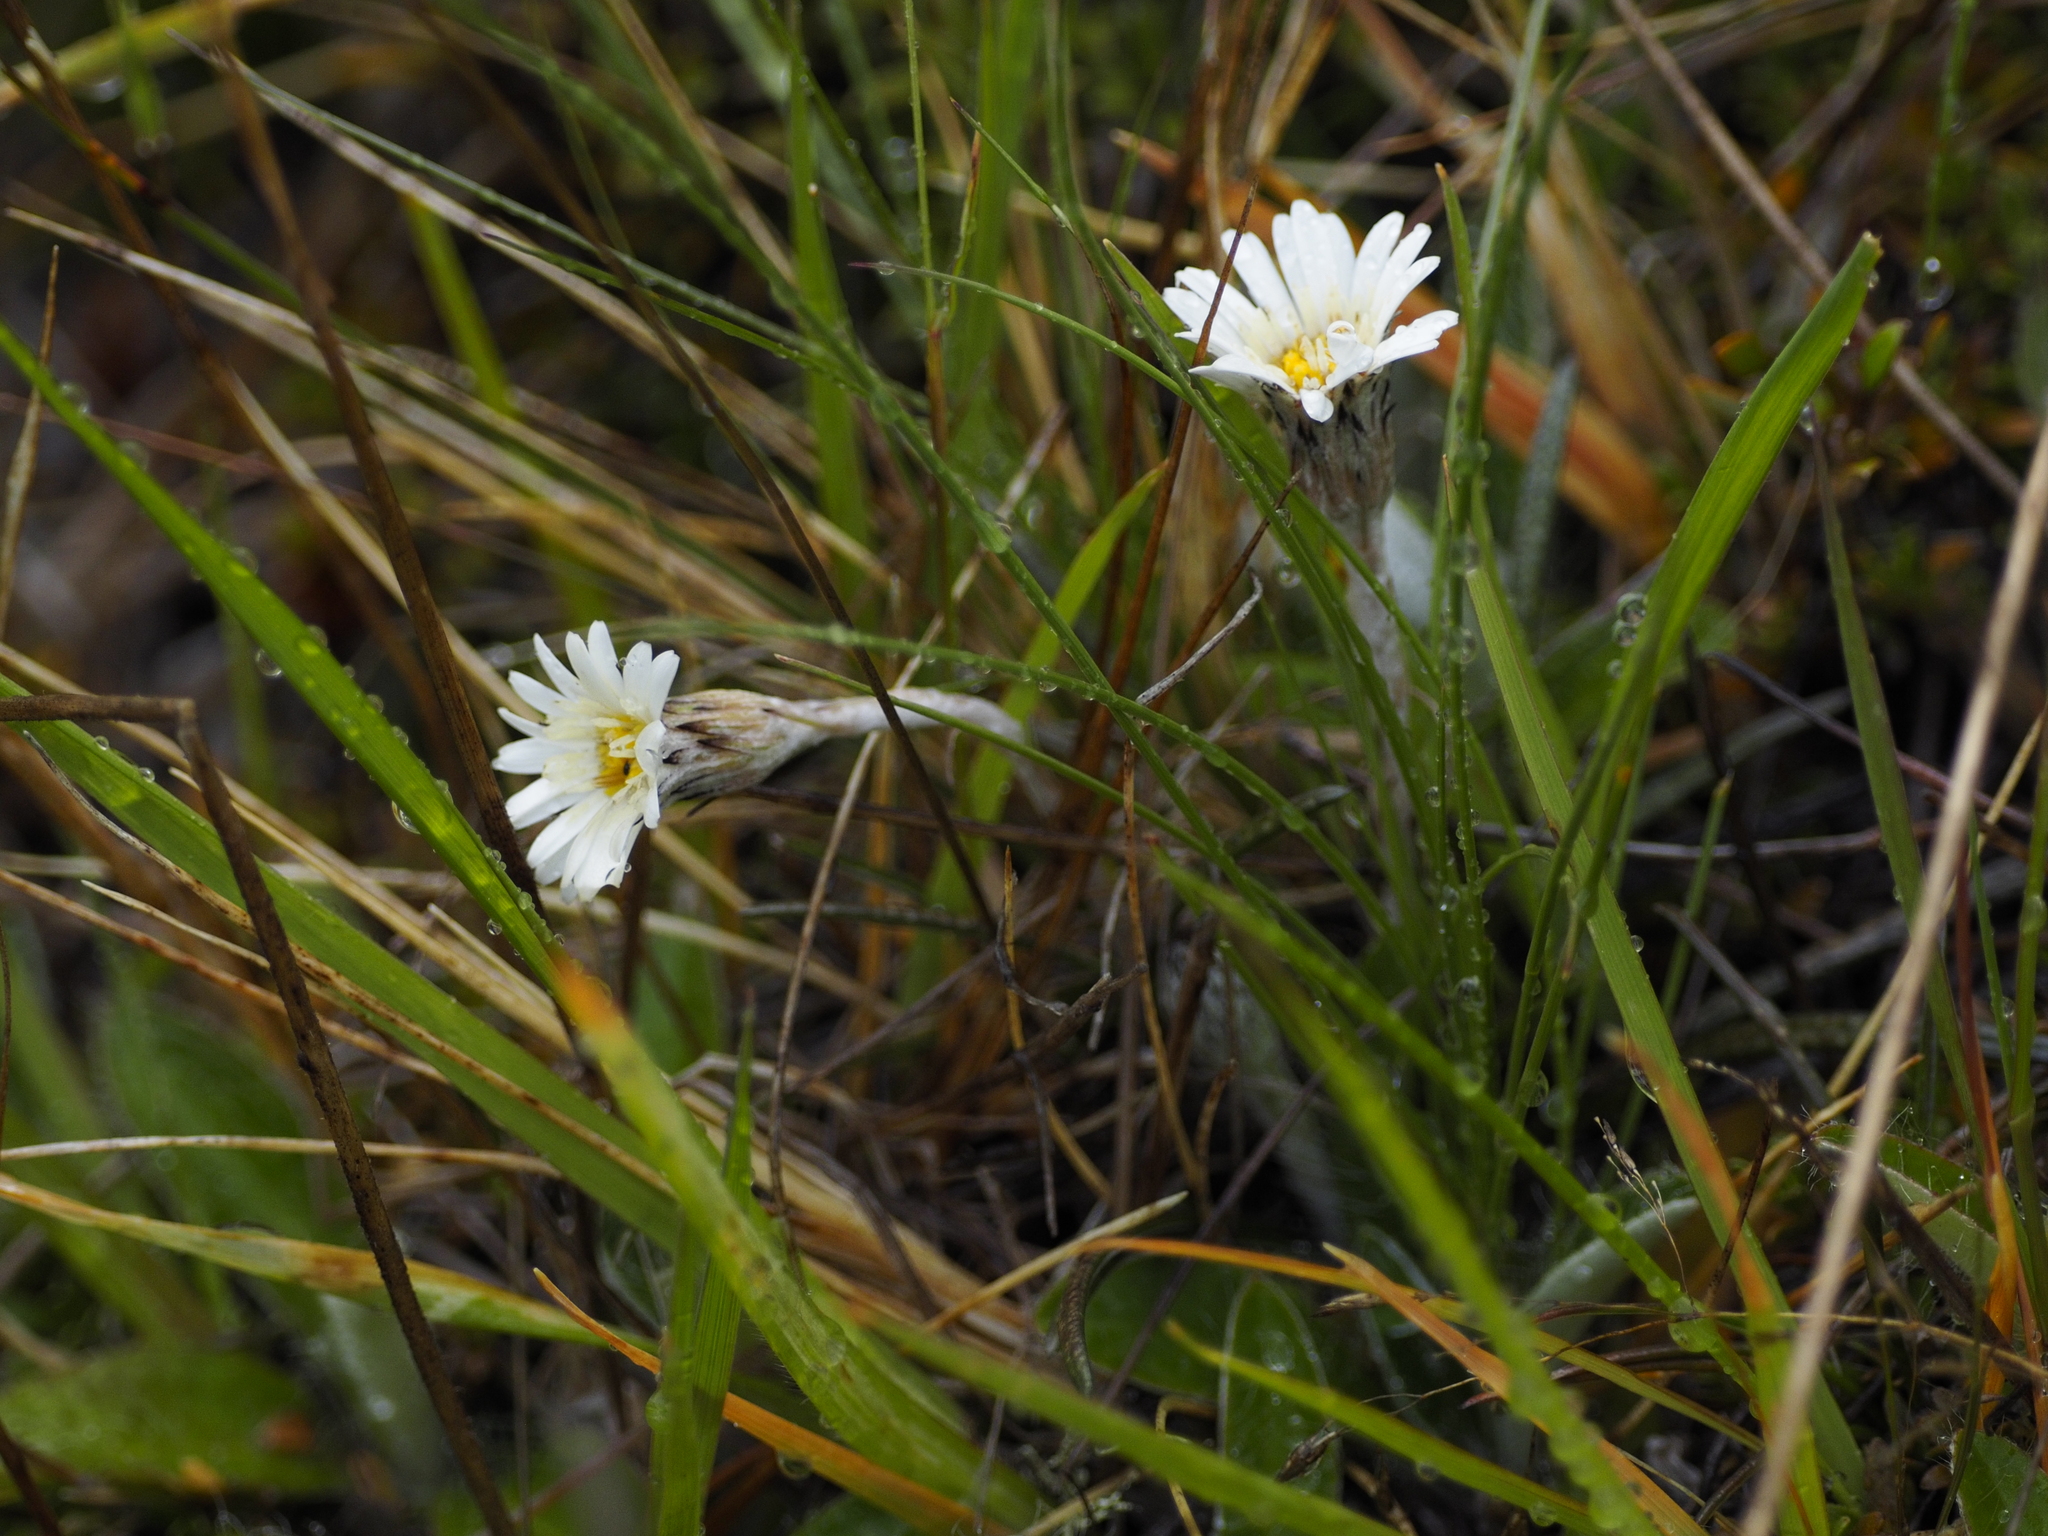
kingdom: Plantae
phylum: Tracheophyta
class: Magnoliopsida
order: Asterales
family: Asteraceae
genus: Celmisia
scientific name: Celmisia gracilenta
